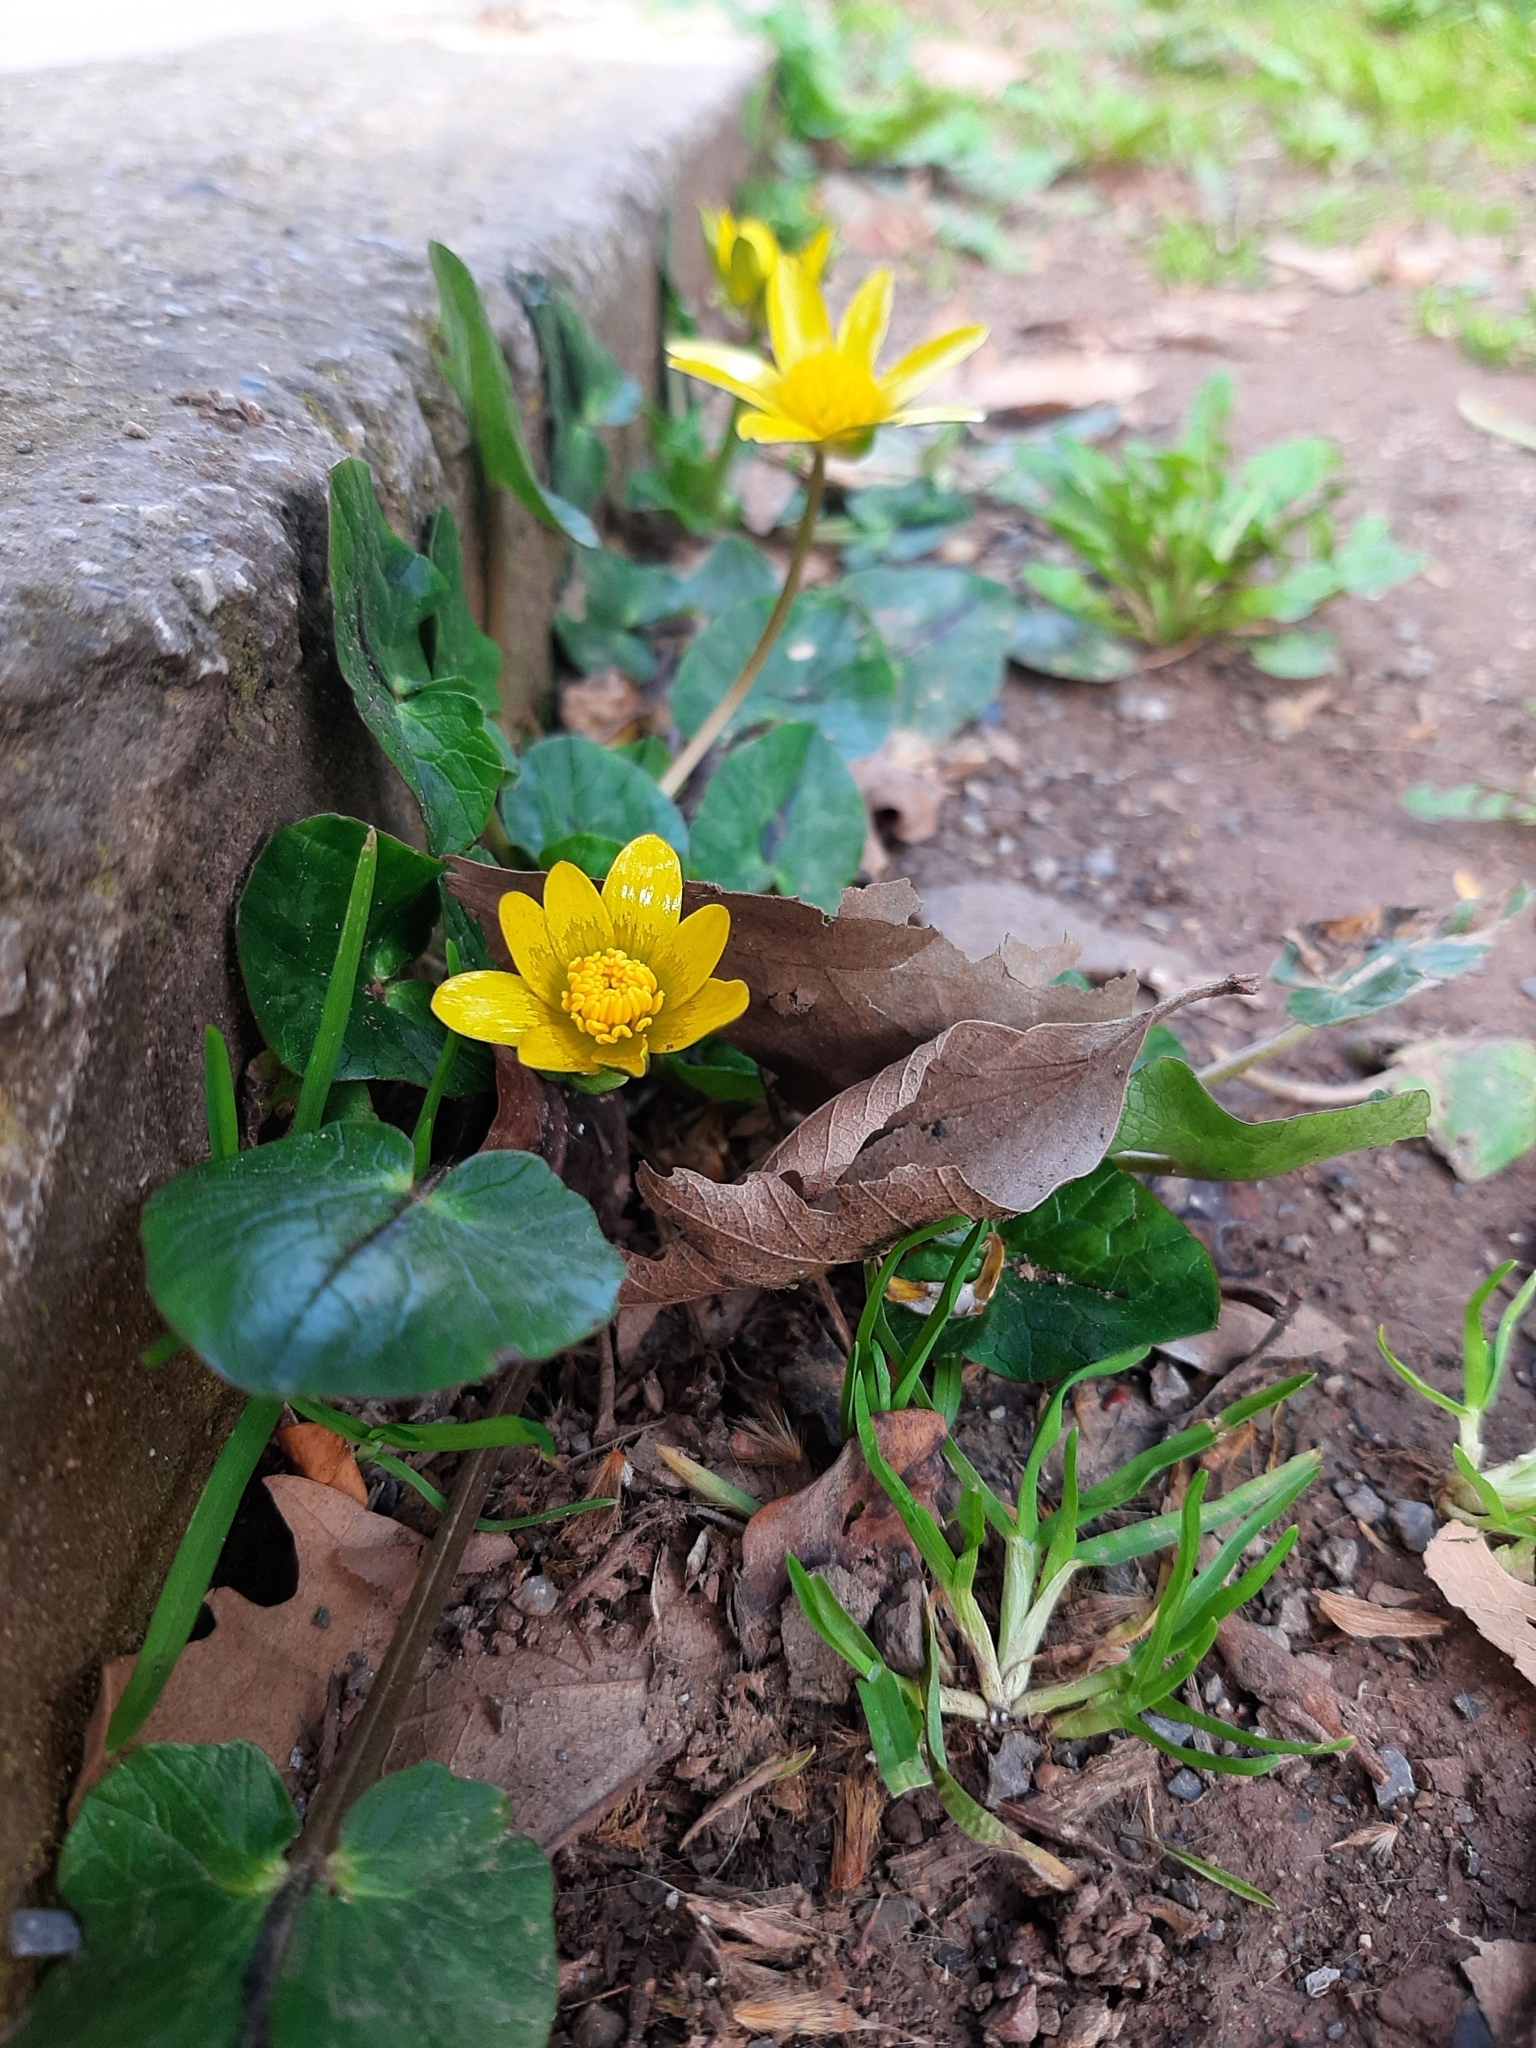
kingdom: Plantae
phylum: Tracheophyta
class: Magnoliopsida
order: Ranunculales
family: Ranunculaceae
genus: Ficaria
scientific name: Ficaria verna
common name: Lesser celandine
